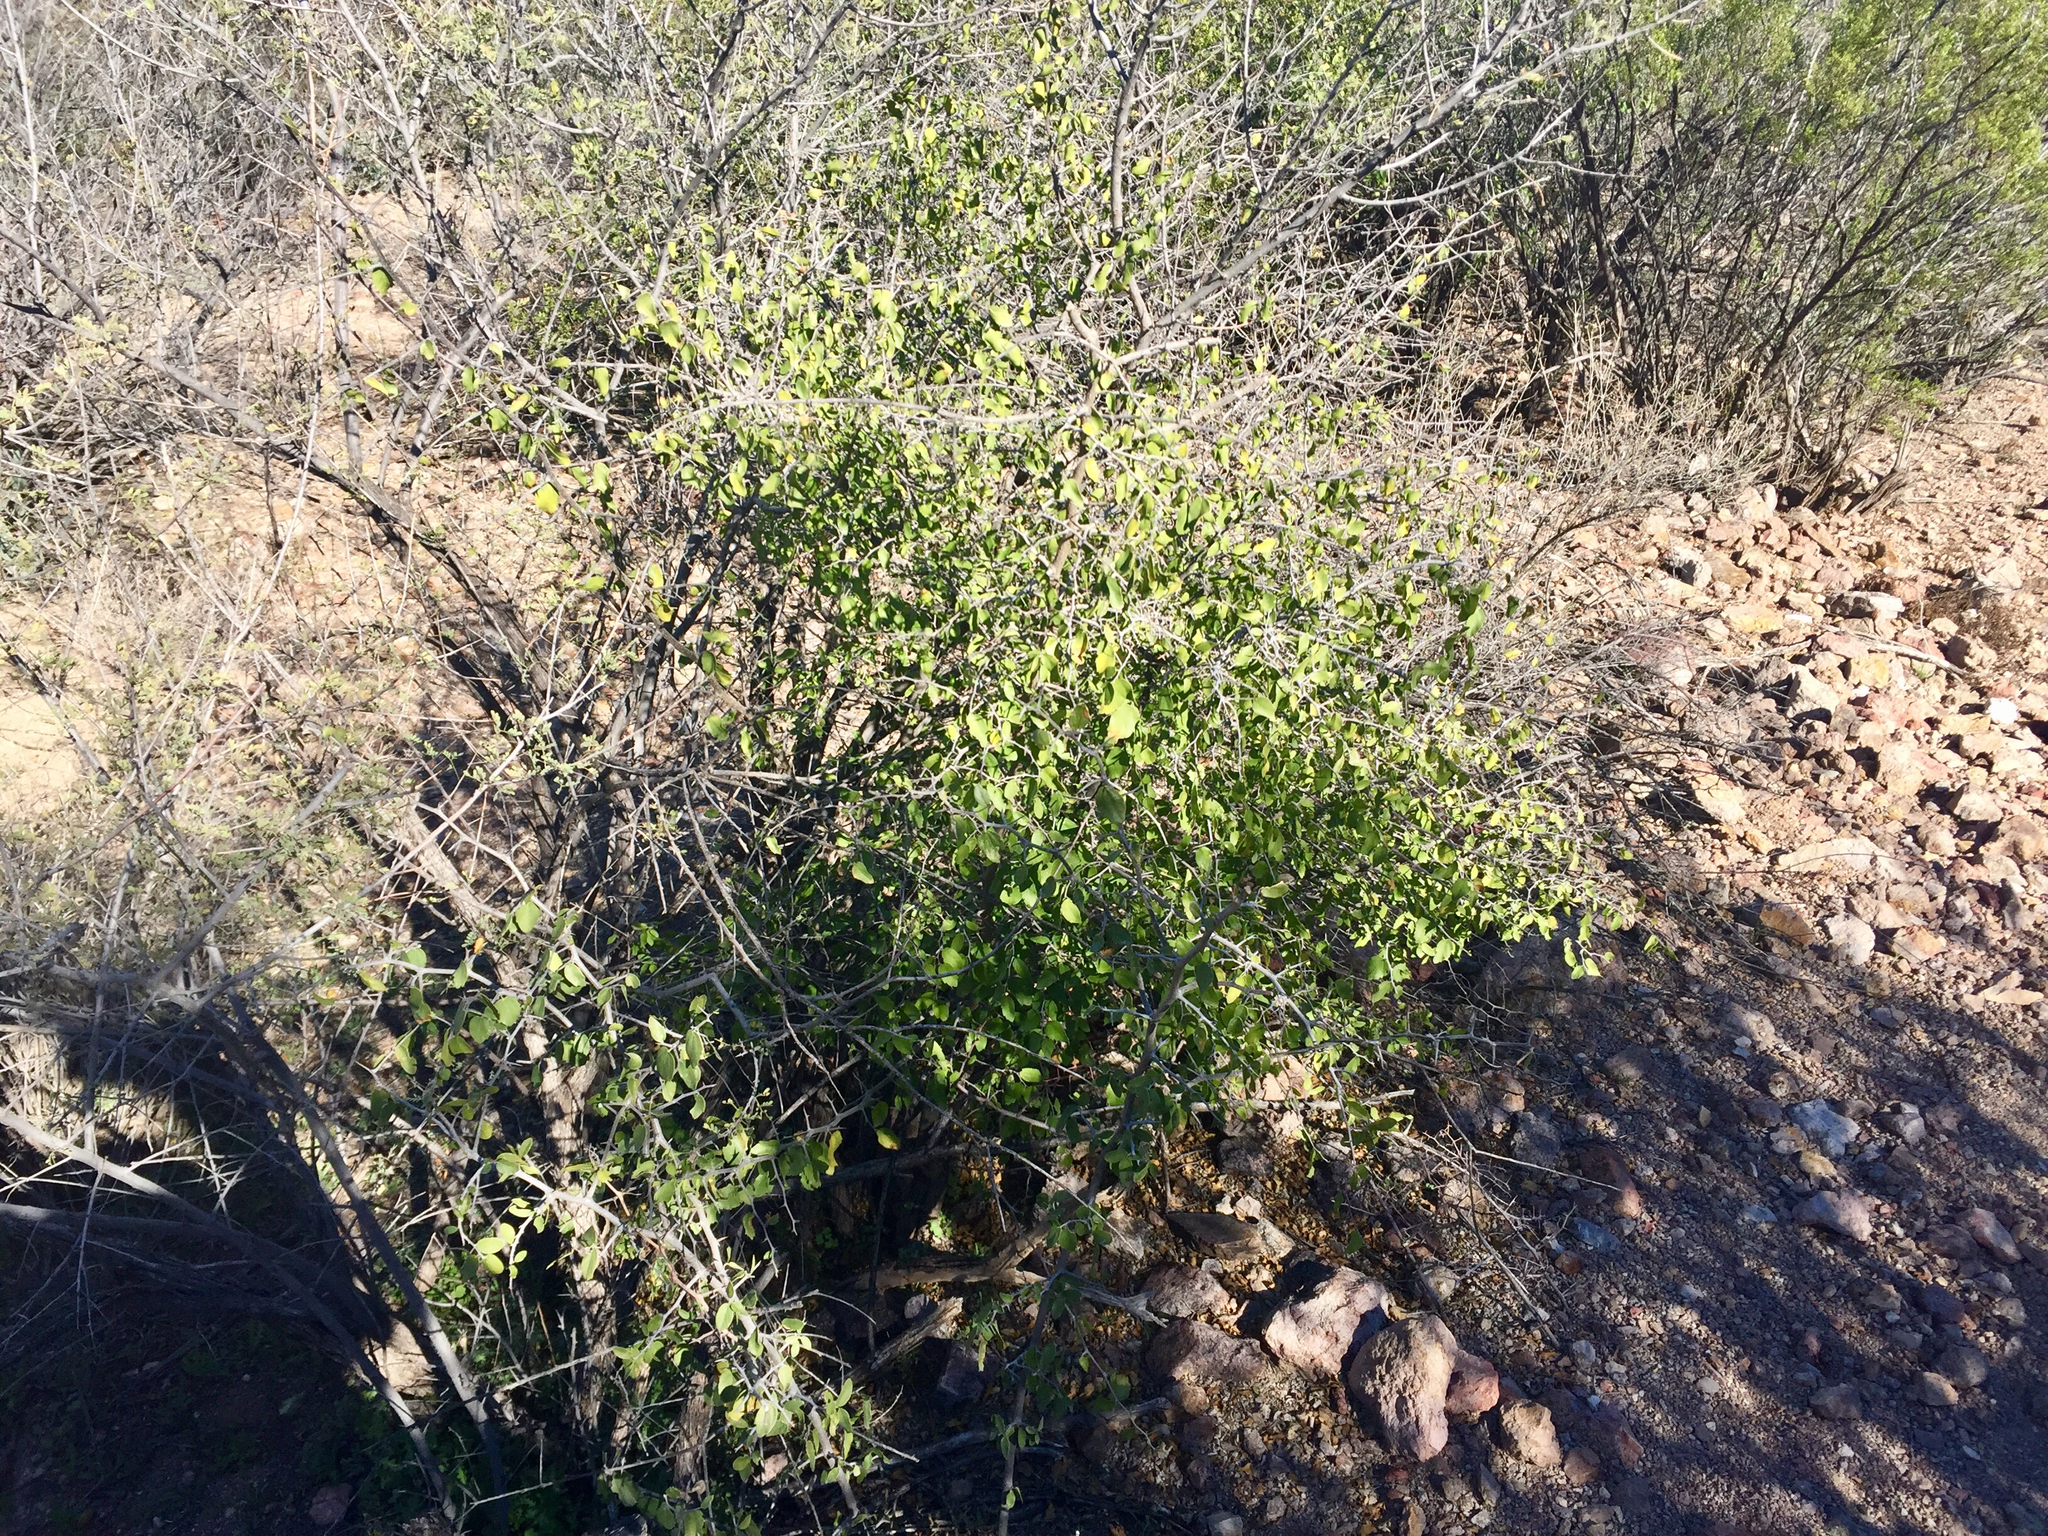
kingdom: Plantae
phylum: Tracheophyta
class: Magnoliopsida
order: Rosales
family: Cannabaceae
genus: Celtis
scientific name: Celtis pallida
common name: Desert hackberry
